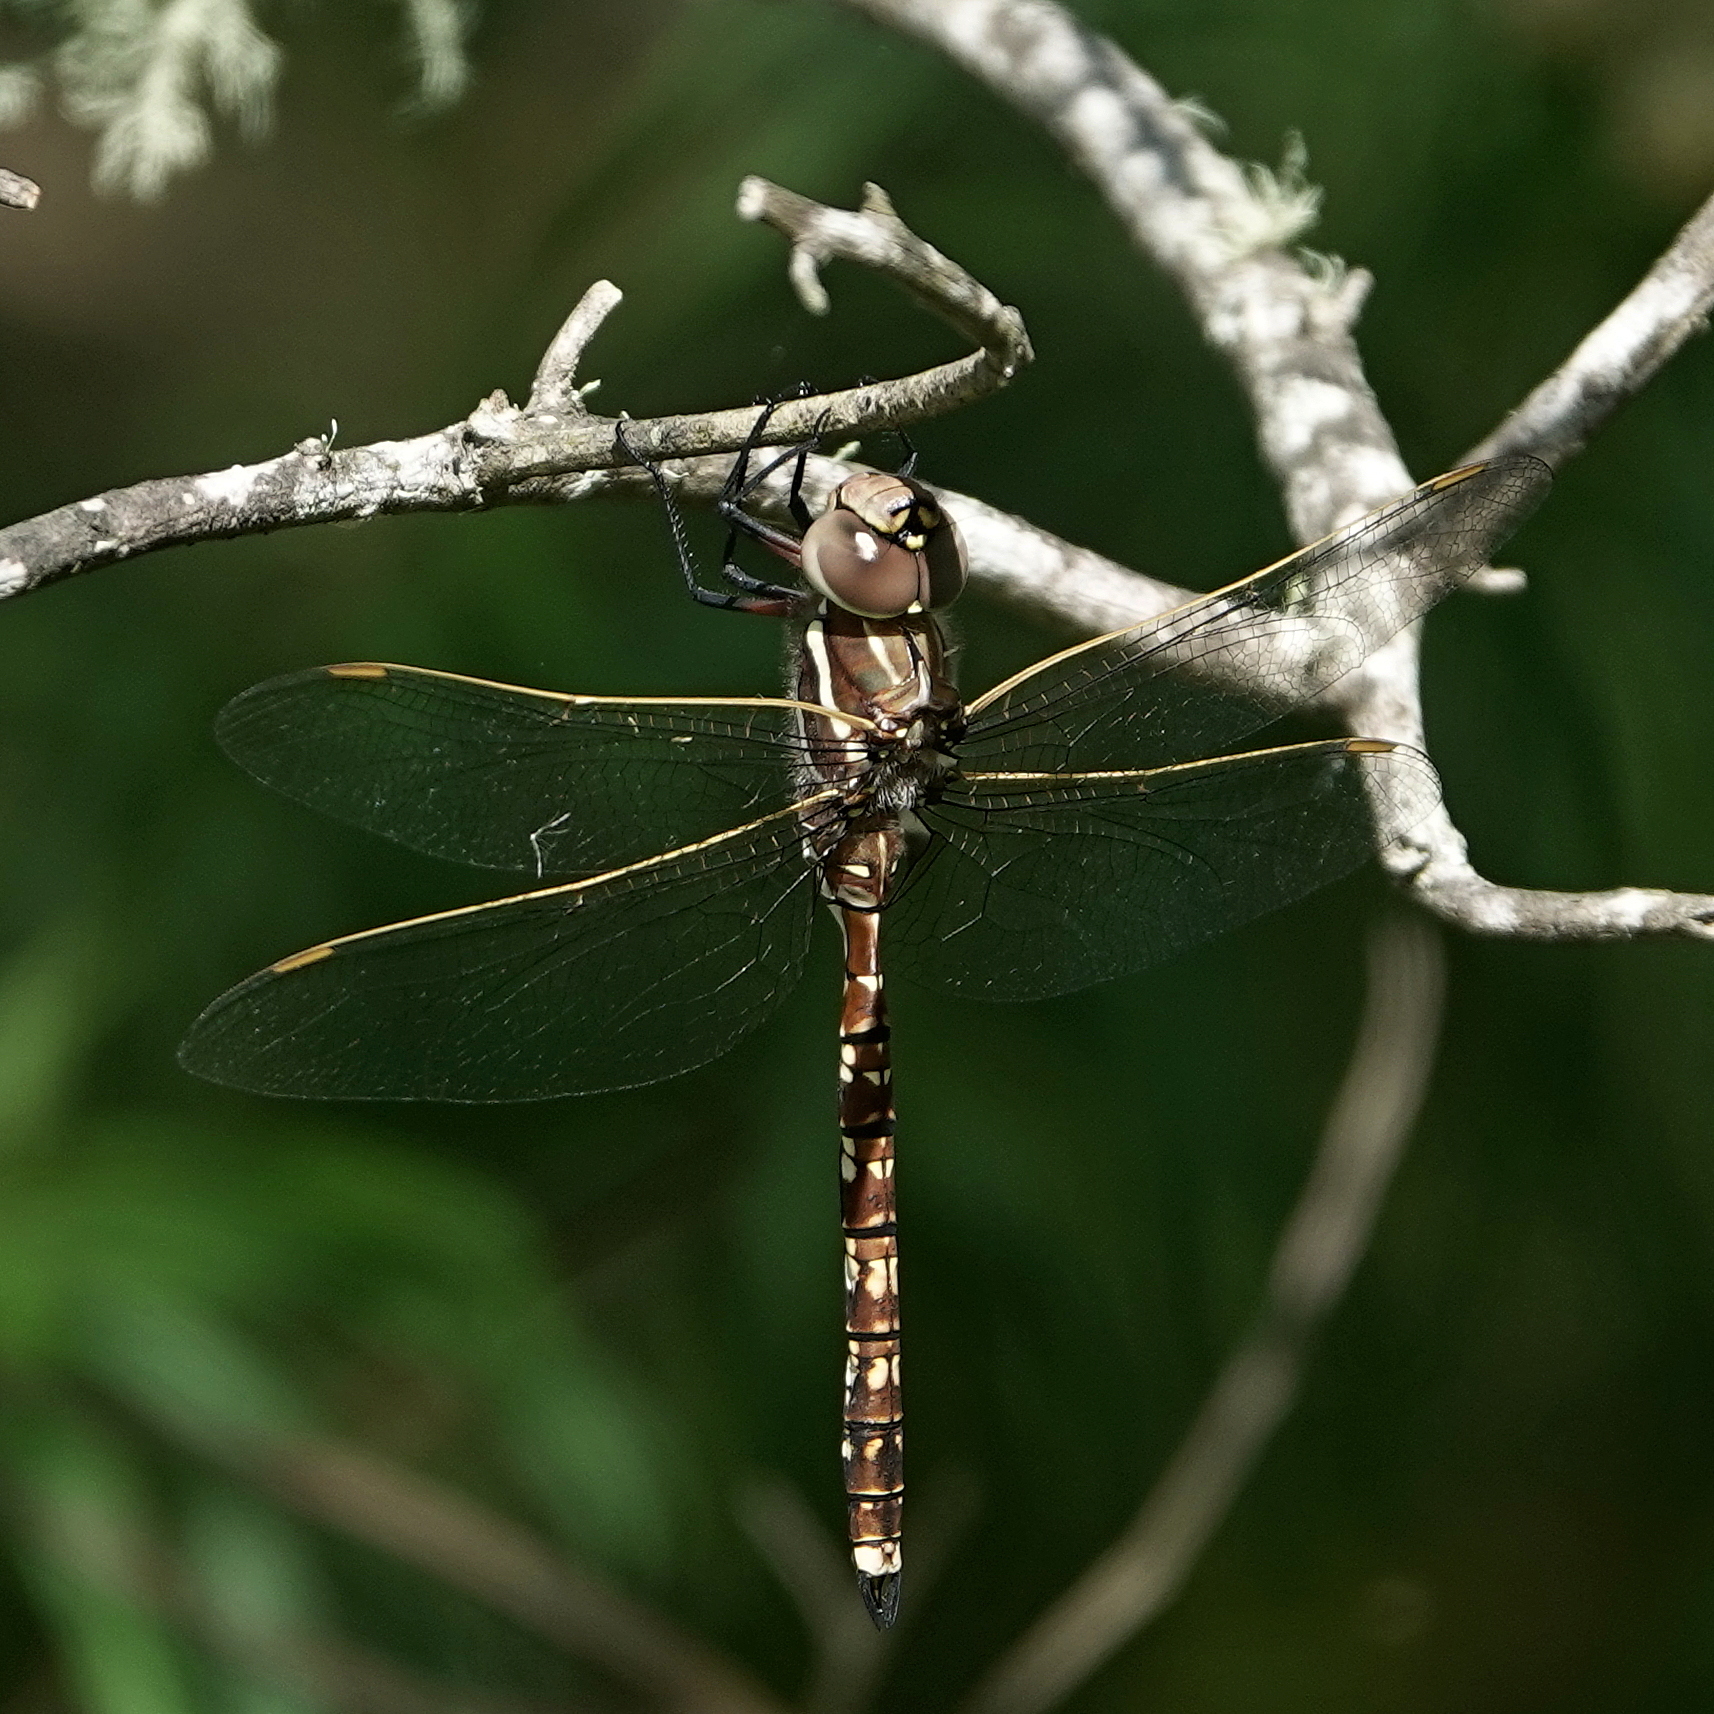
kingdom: Animalia
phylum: Arthropoda
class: Insecta
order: Odonata
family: Aeshnidae
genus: Aeshna
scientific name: Aeshna brevistyla
